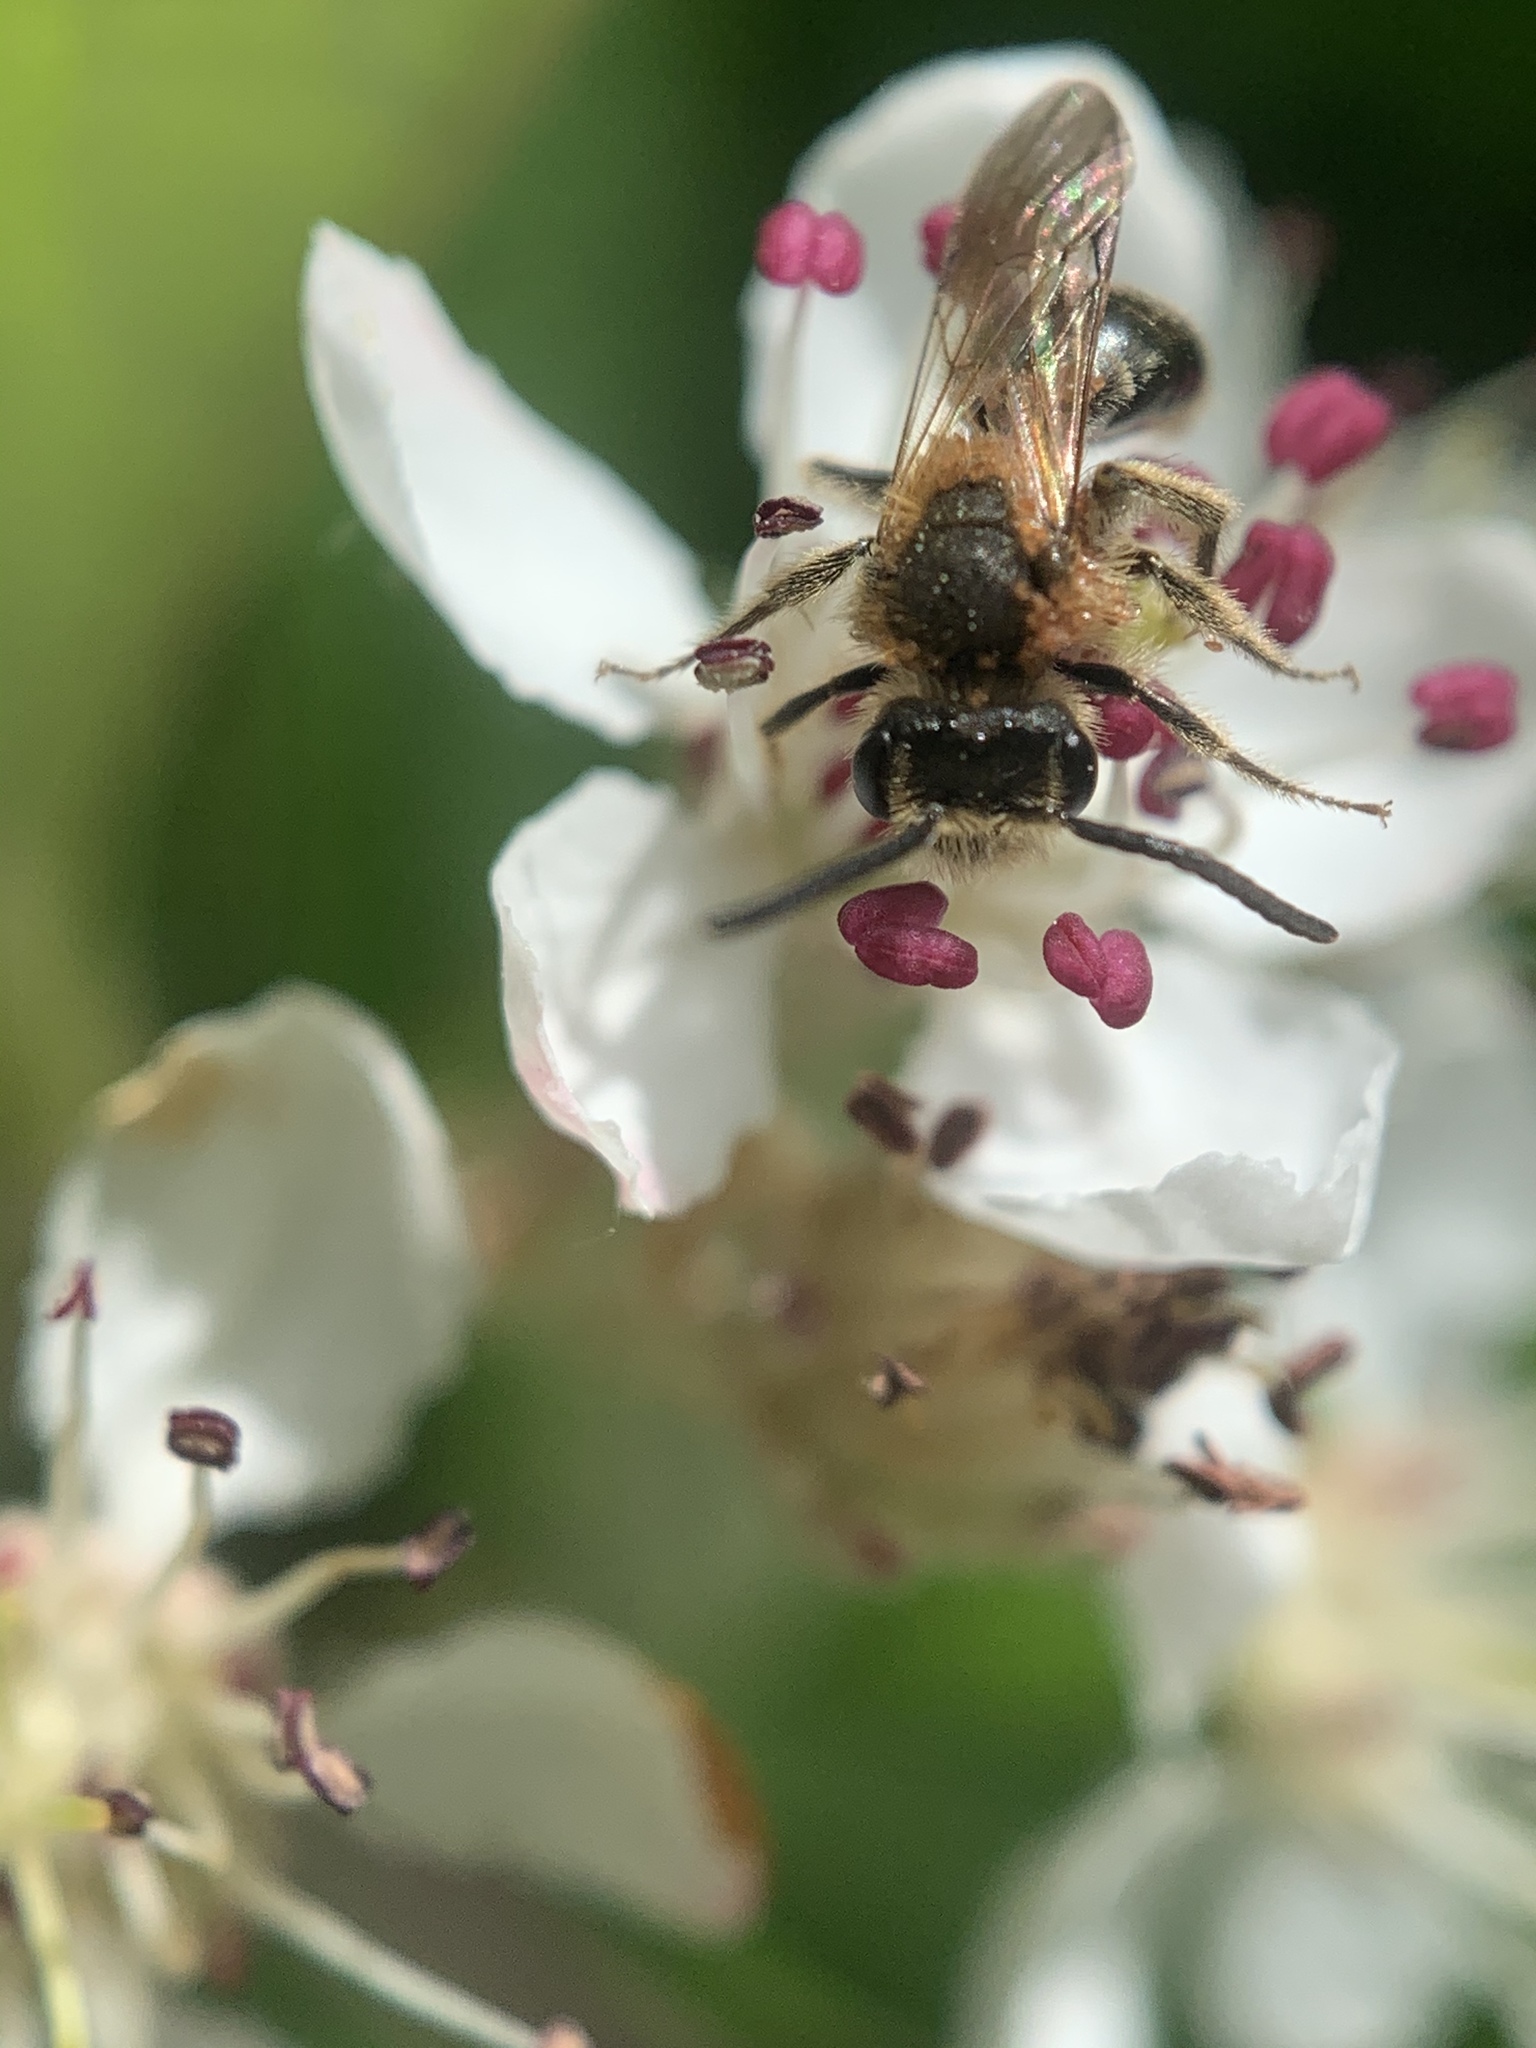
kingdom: Animalia
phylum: Arthropoda
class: Insecta
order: Hymenoptera
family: Andrenidae
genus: Andrena
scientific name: Andrena
